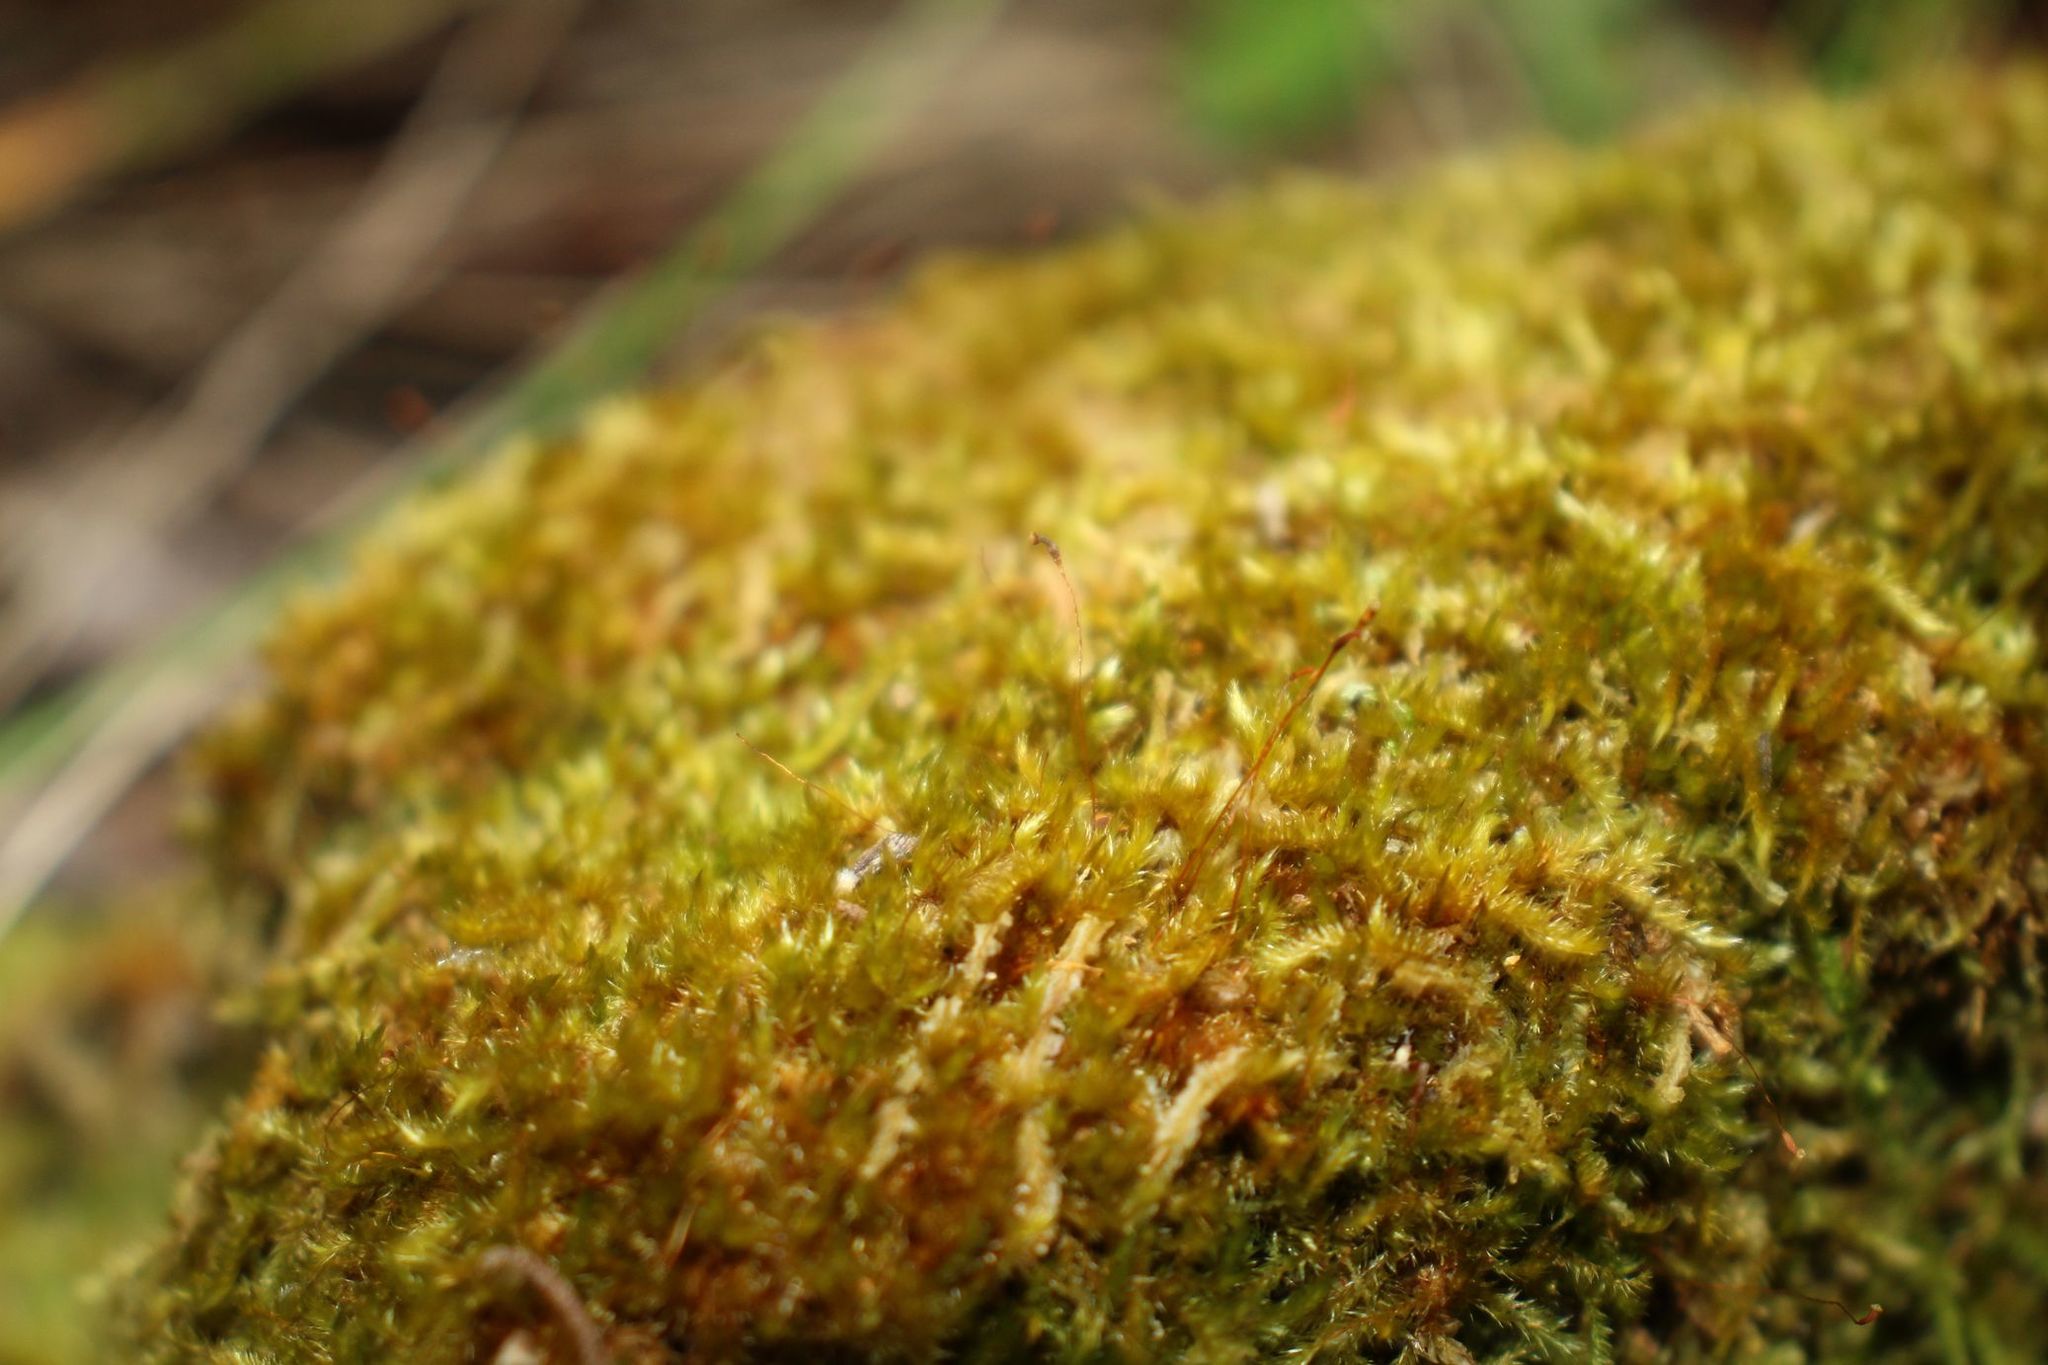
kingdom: Plantae
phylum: Bryophyta
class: Bryopsida
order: Hypnales
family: Sematophyllaceae
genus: Sematophyllum
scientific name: Sematophyllum homomallum
